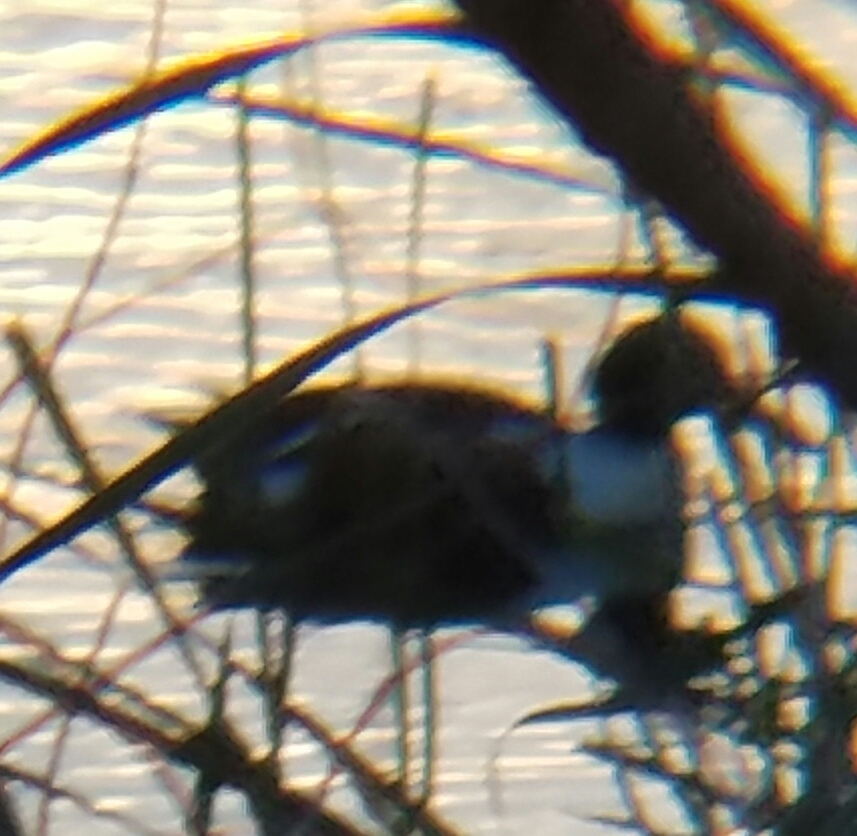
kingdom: Animalia
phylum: Chordata
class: Aves
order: Anseriformes
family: Anatidae
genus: Spatula
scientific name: Spatula clypeata
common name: Northern shoveler
